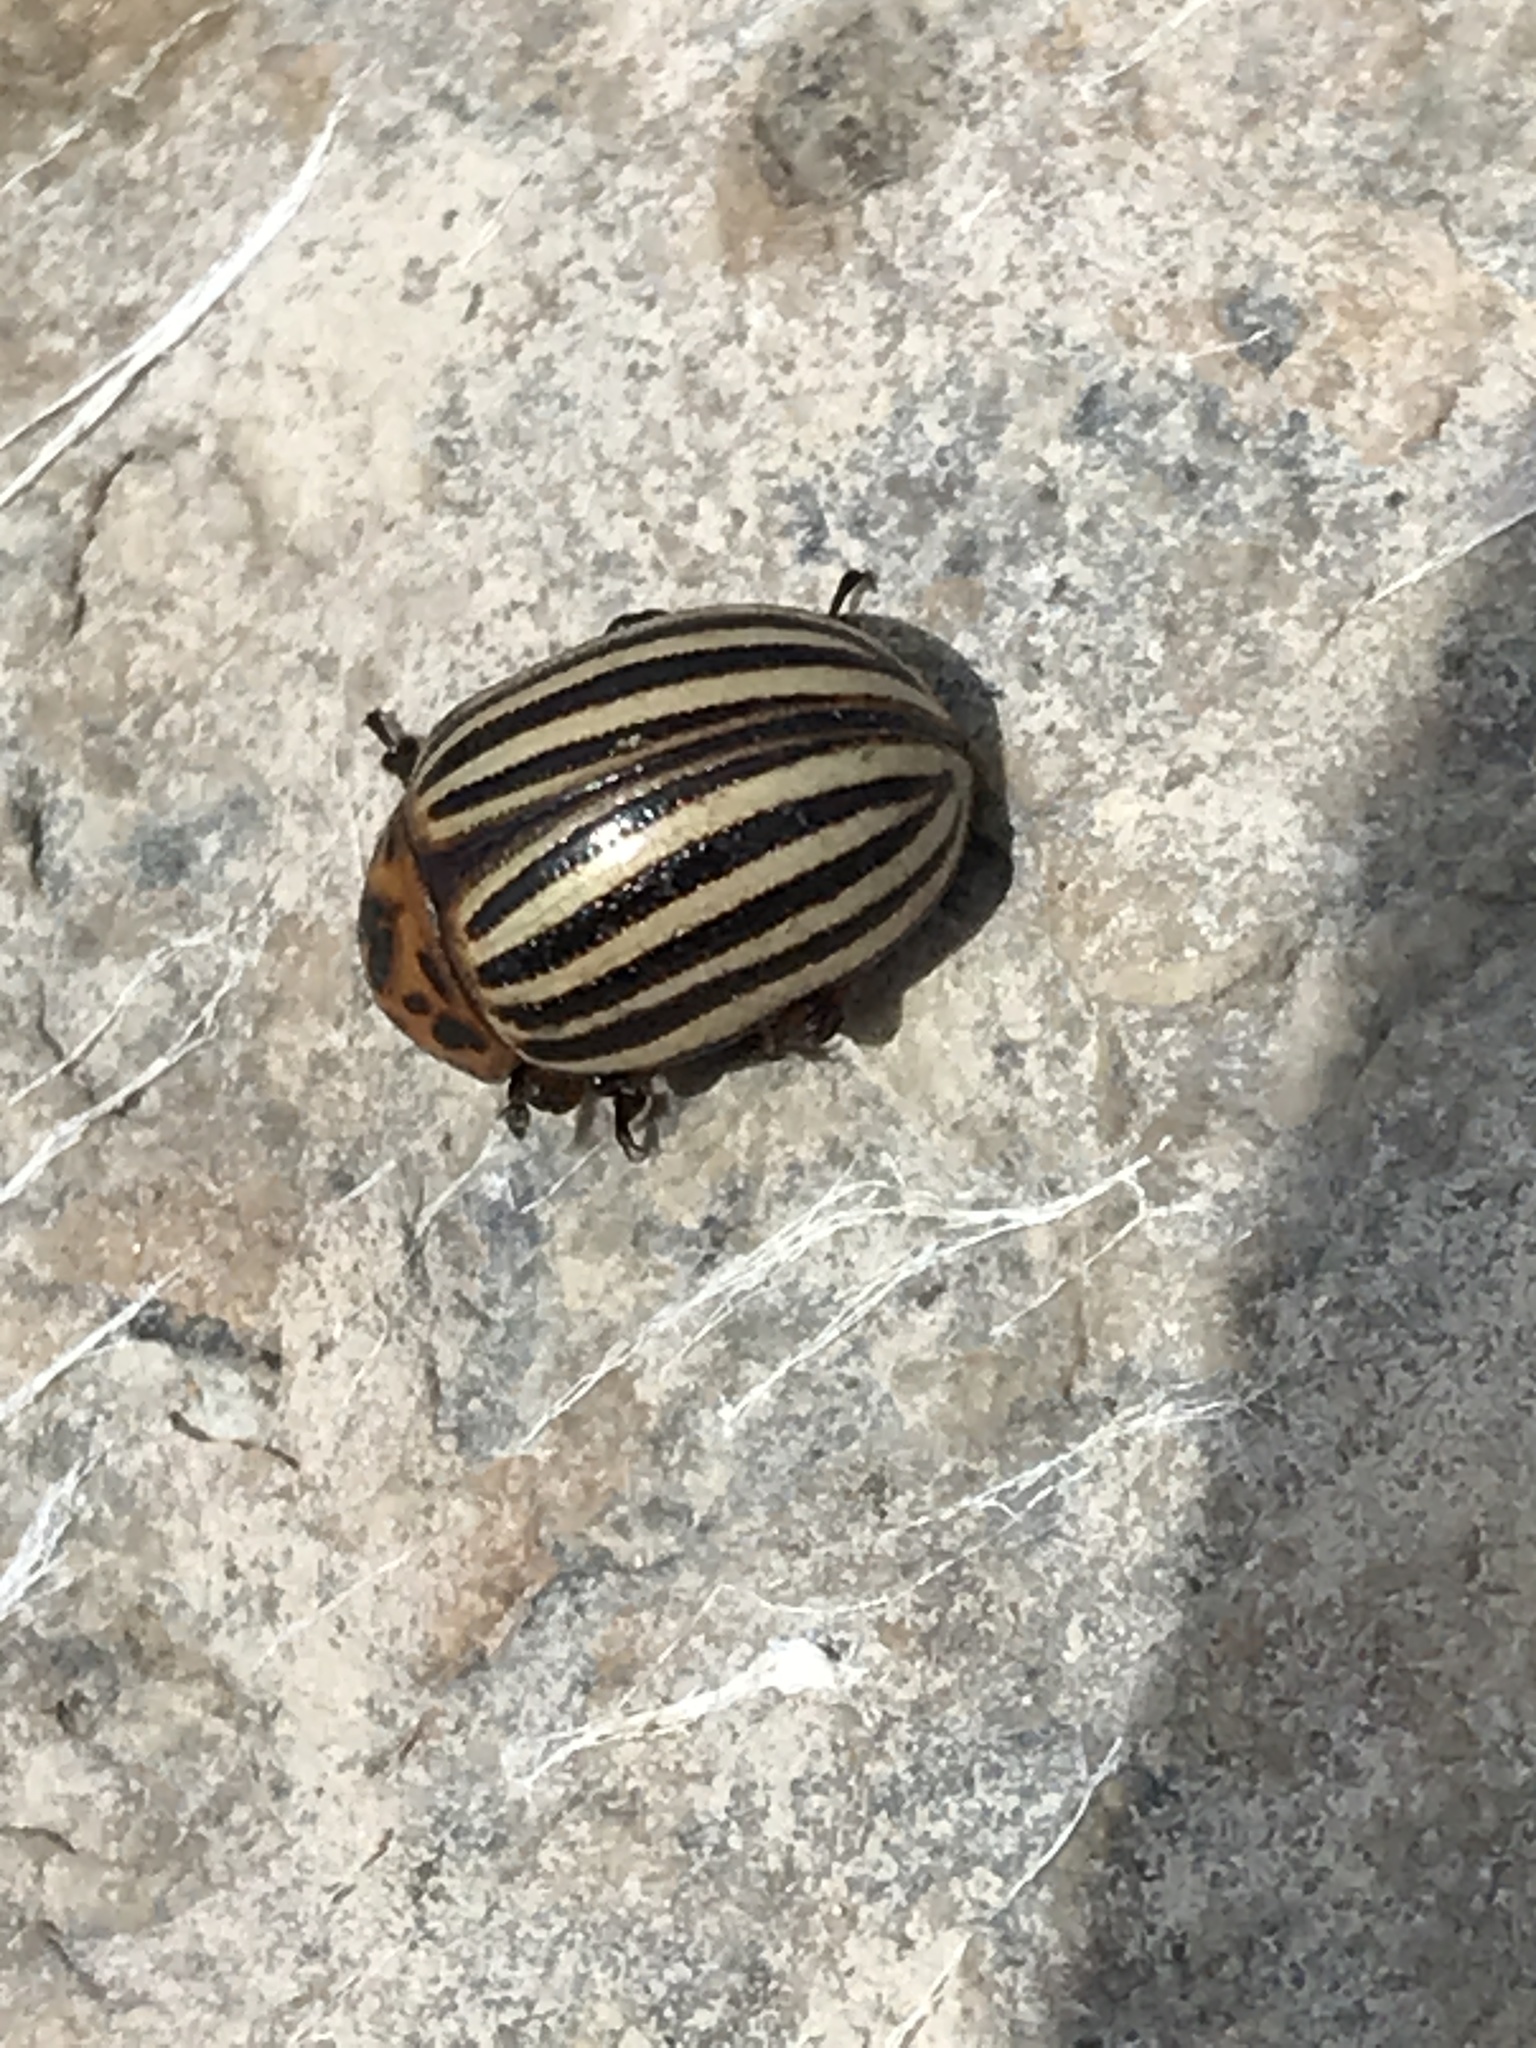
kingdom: Animalia
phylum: Arthropoda
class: Insecta
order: Coleoptera
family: Chrysomelidae
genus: Leptinotarsa
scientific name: Leptinotarsa decemlineata
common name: Colorado potato beetle
